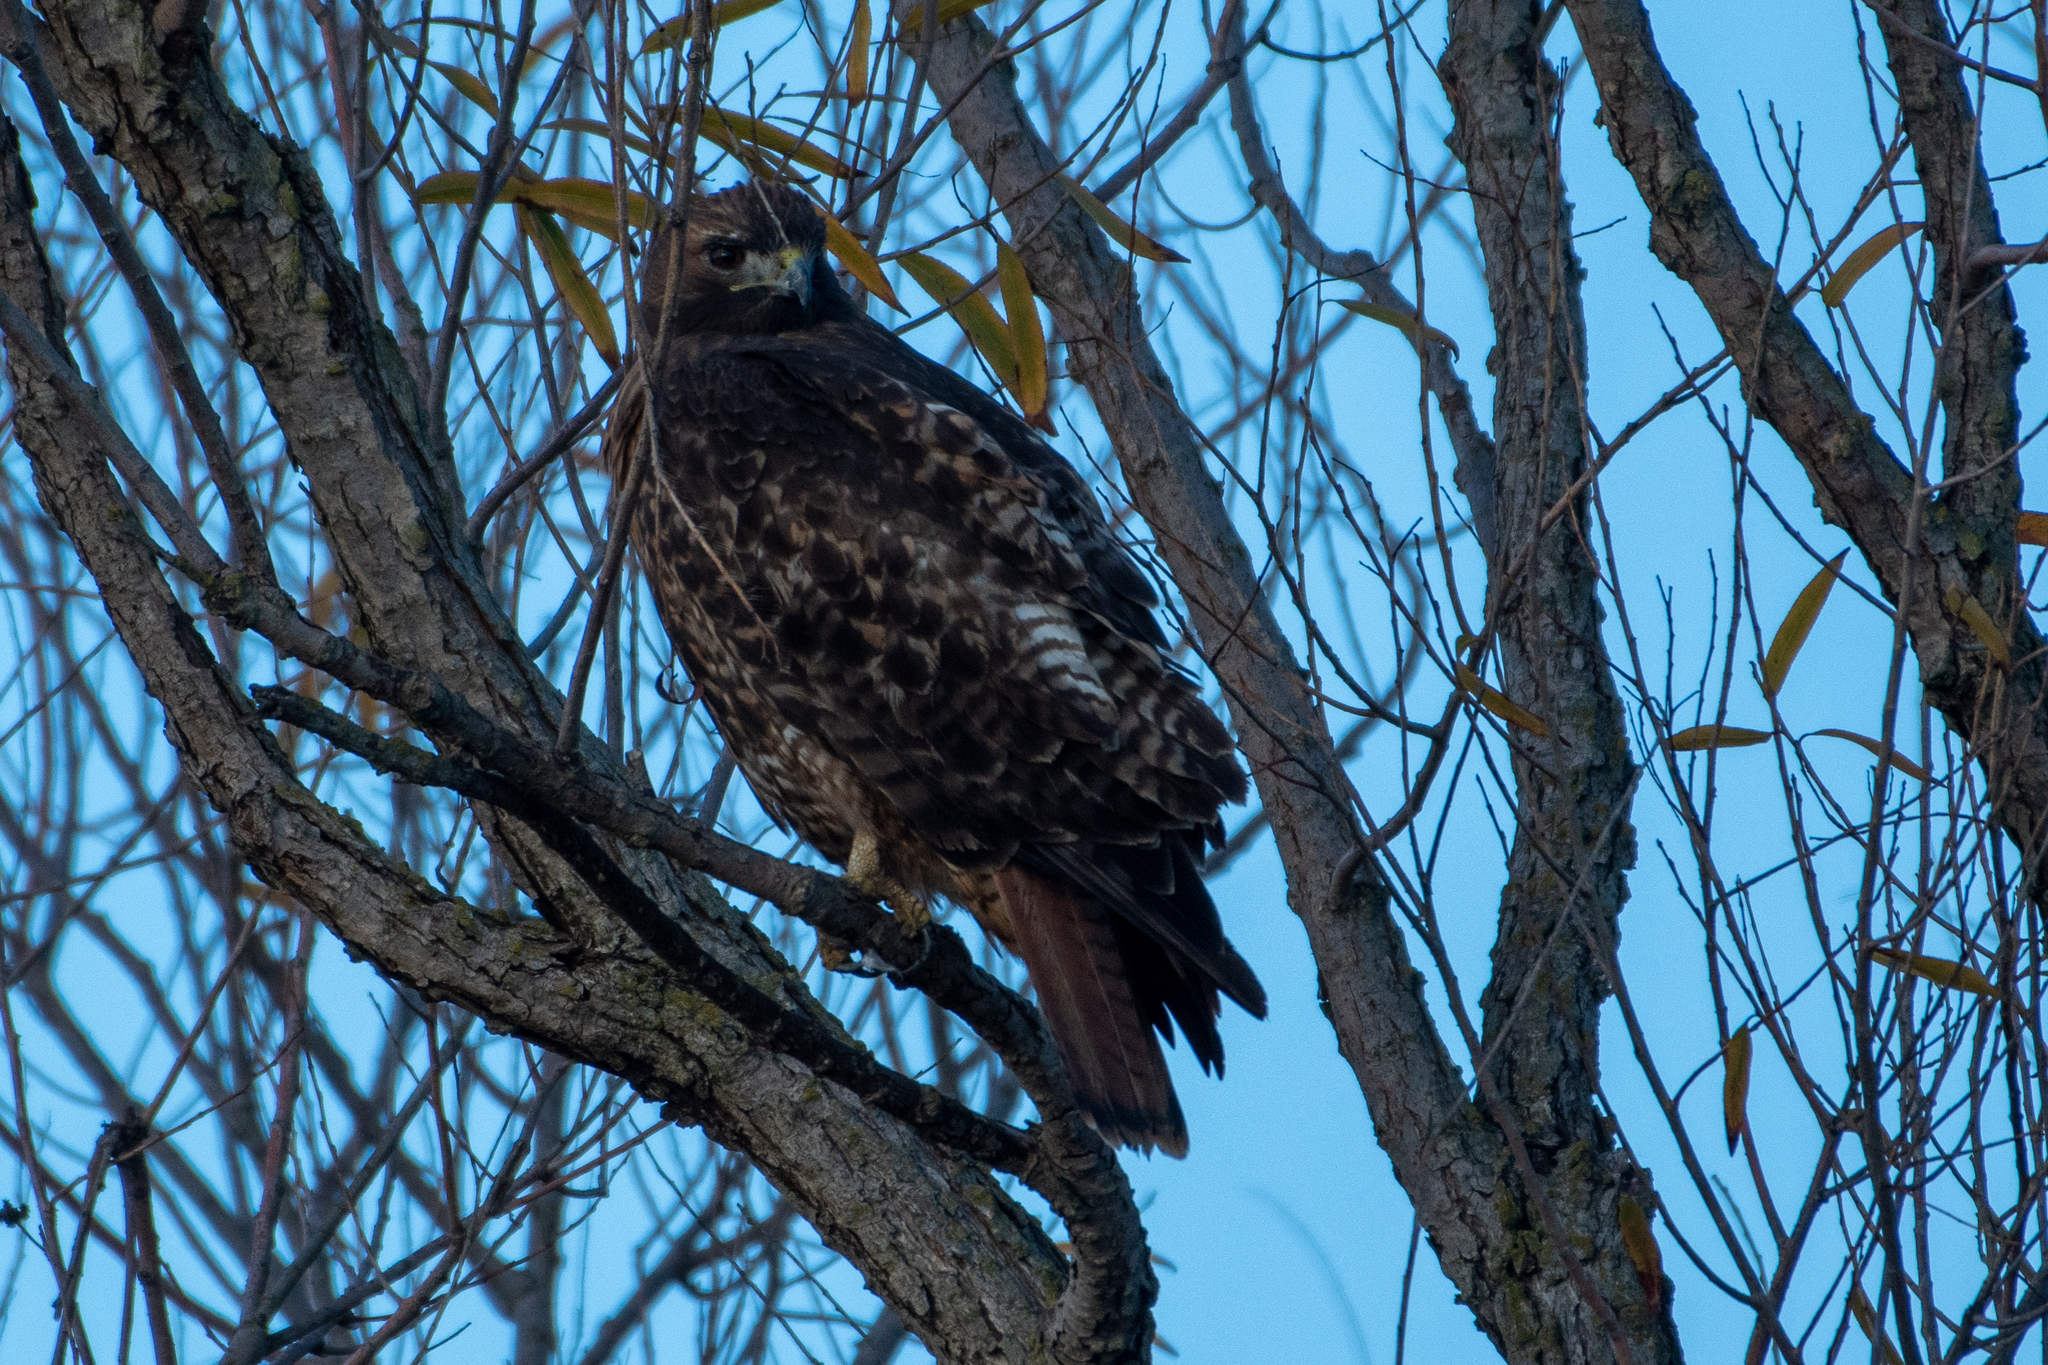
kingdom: Animalia
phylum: Chordata
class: Aves
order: Accipitriformes
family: Accipitridae
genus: Buteo
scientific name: Buteo jamaicensis
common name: Red-tailed hawk
